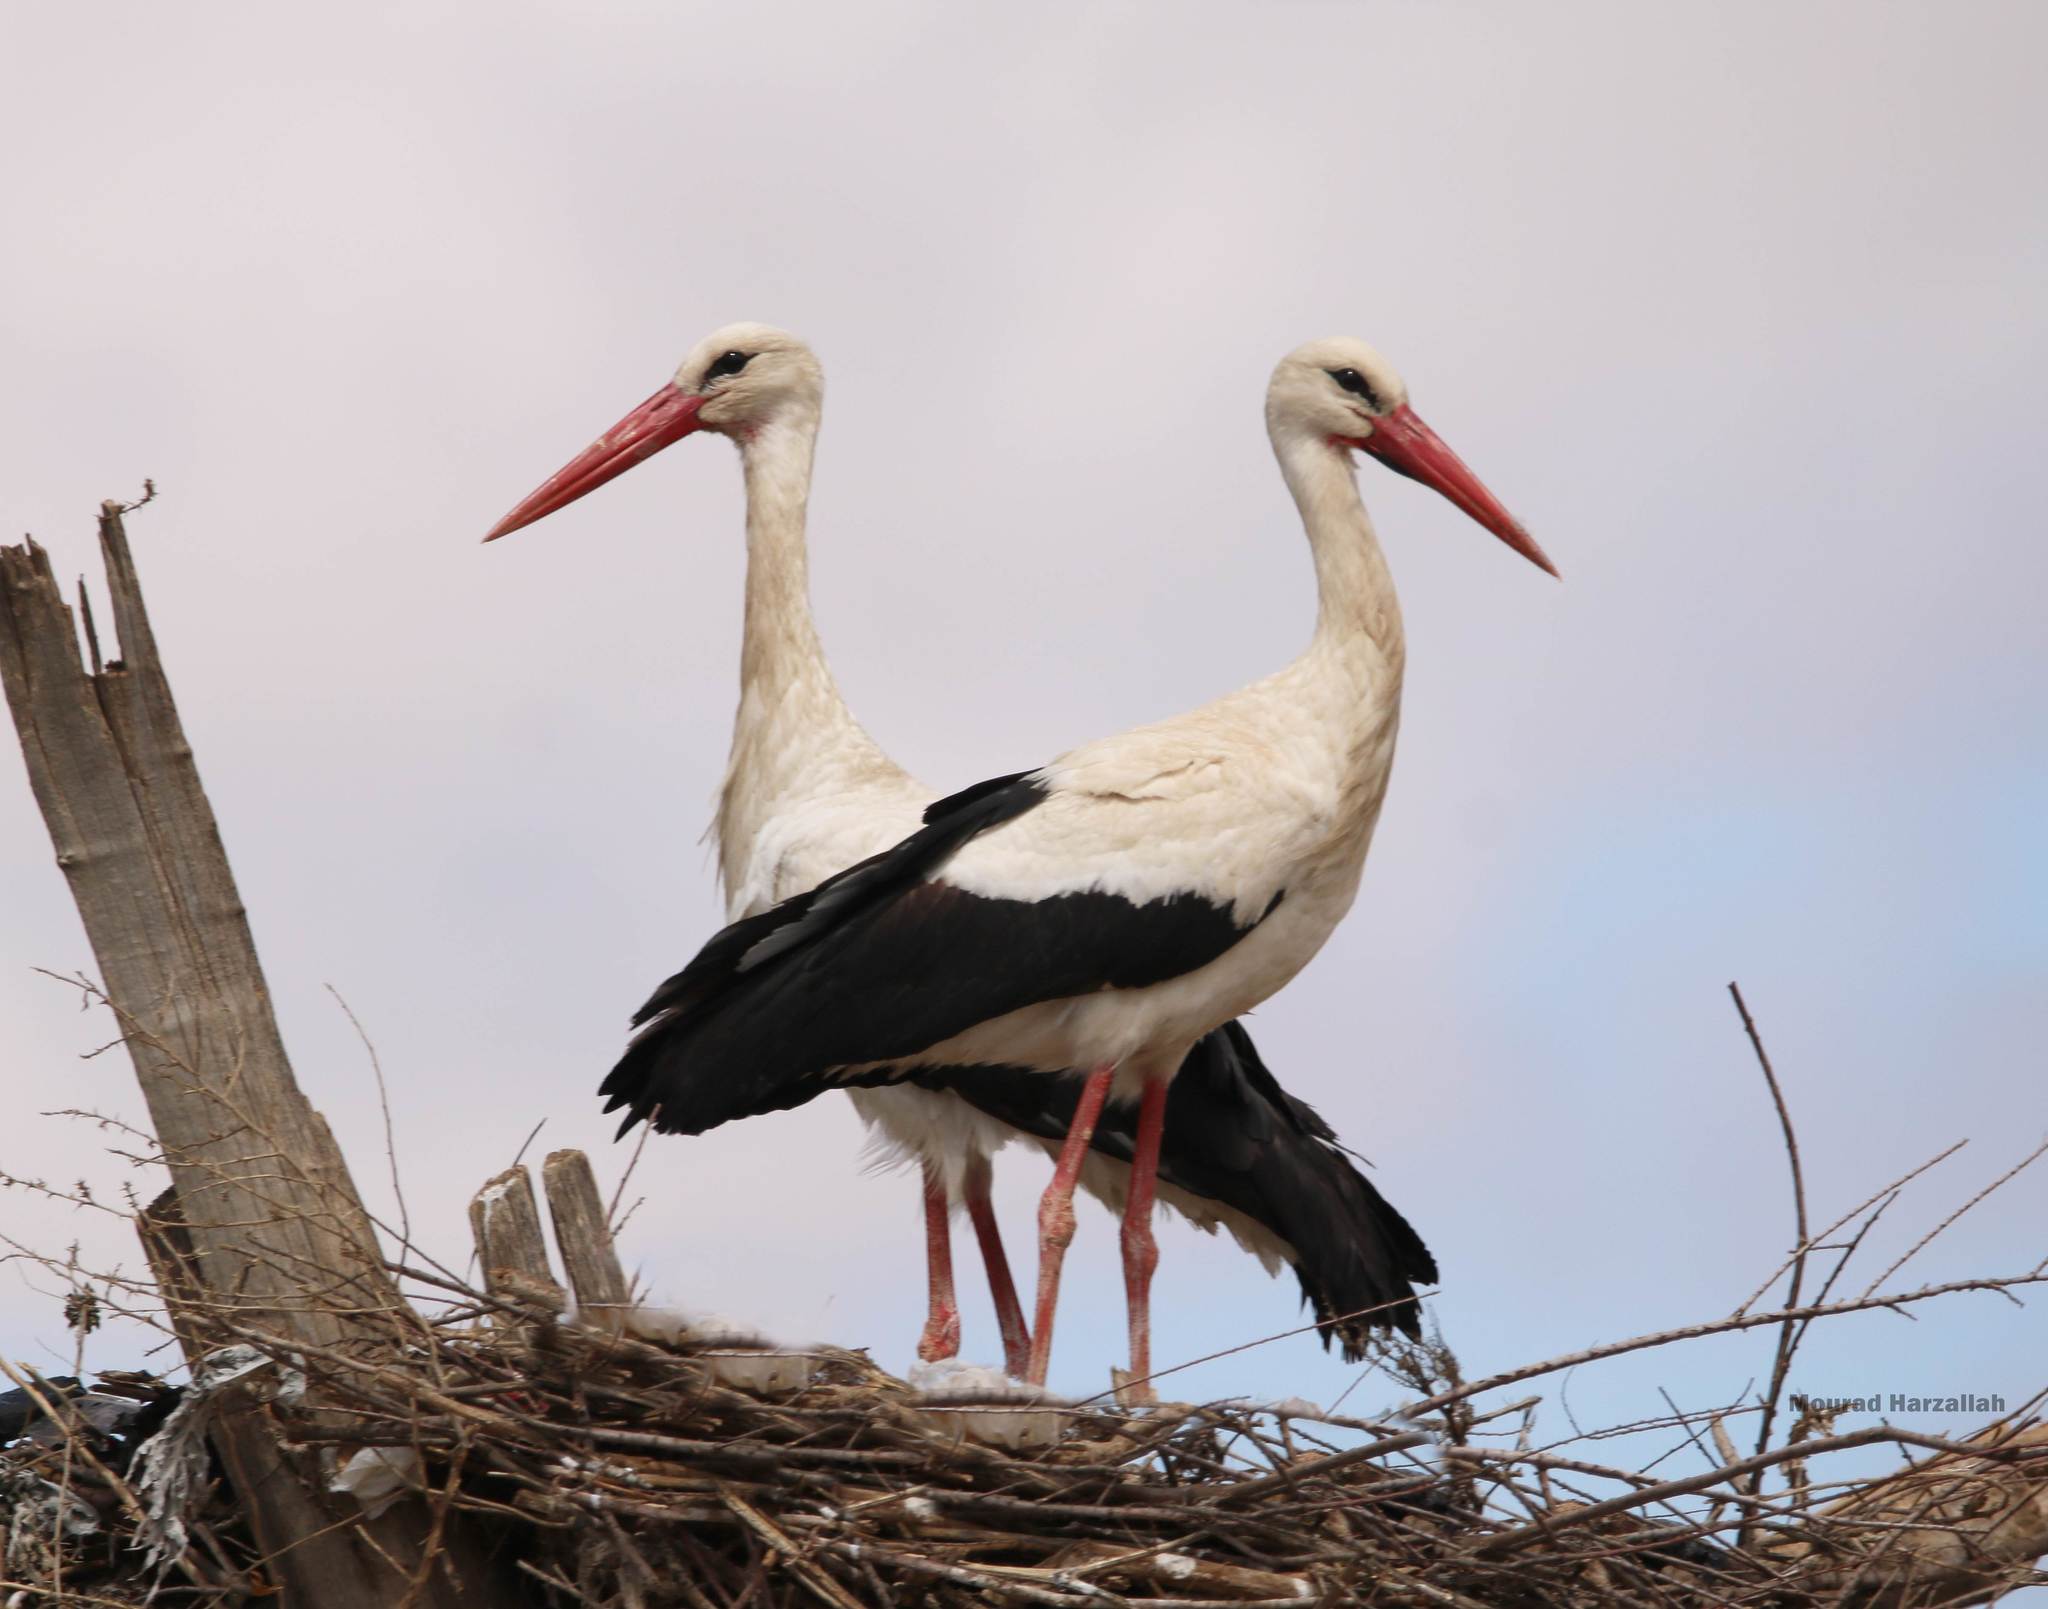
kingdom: Animalia
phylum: Chordata
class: Aves
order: Ciconiiformes
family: Ciconiidae
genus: Ciconia
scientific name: Ciconia ciconia
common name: White stork
